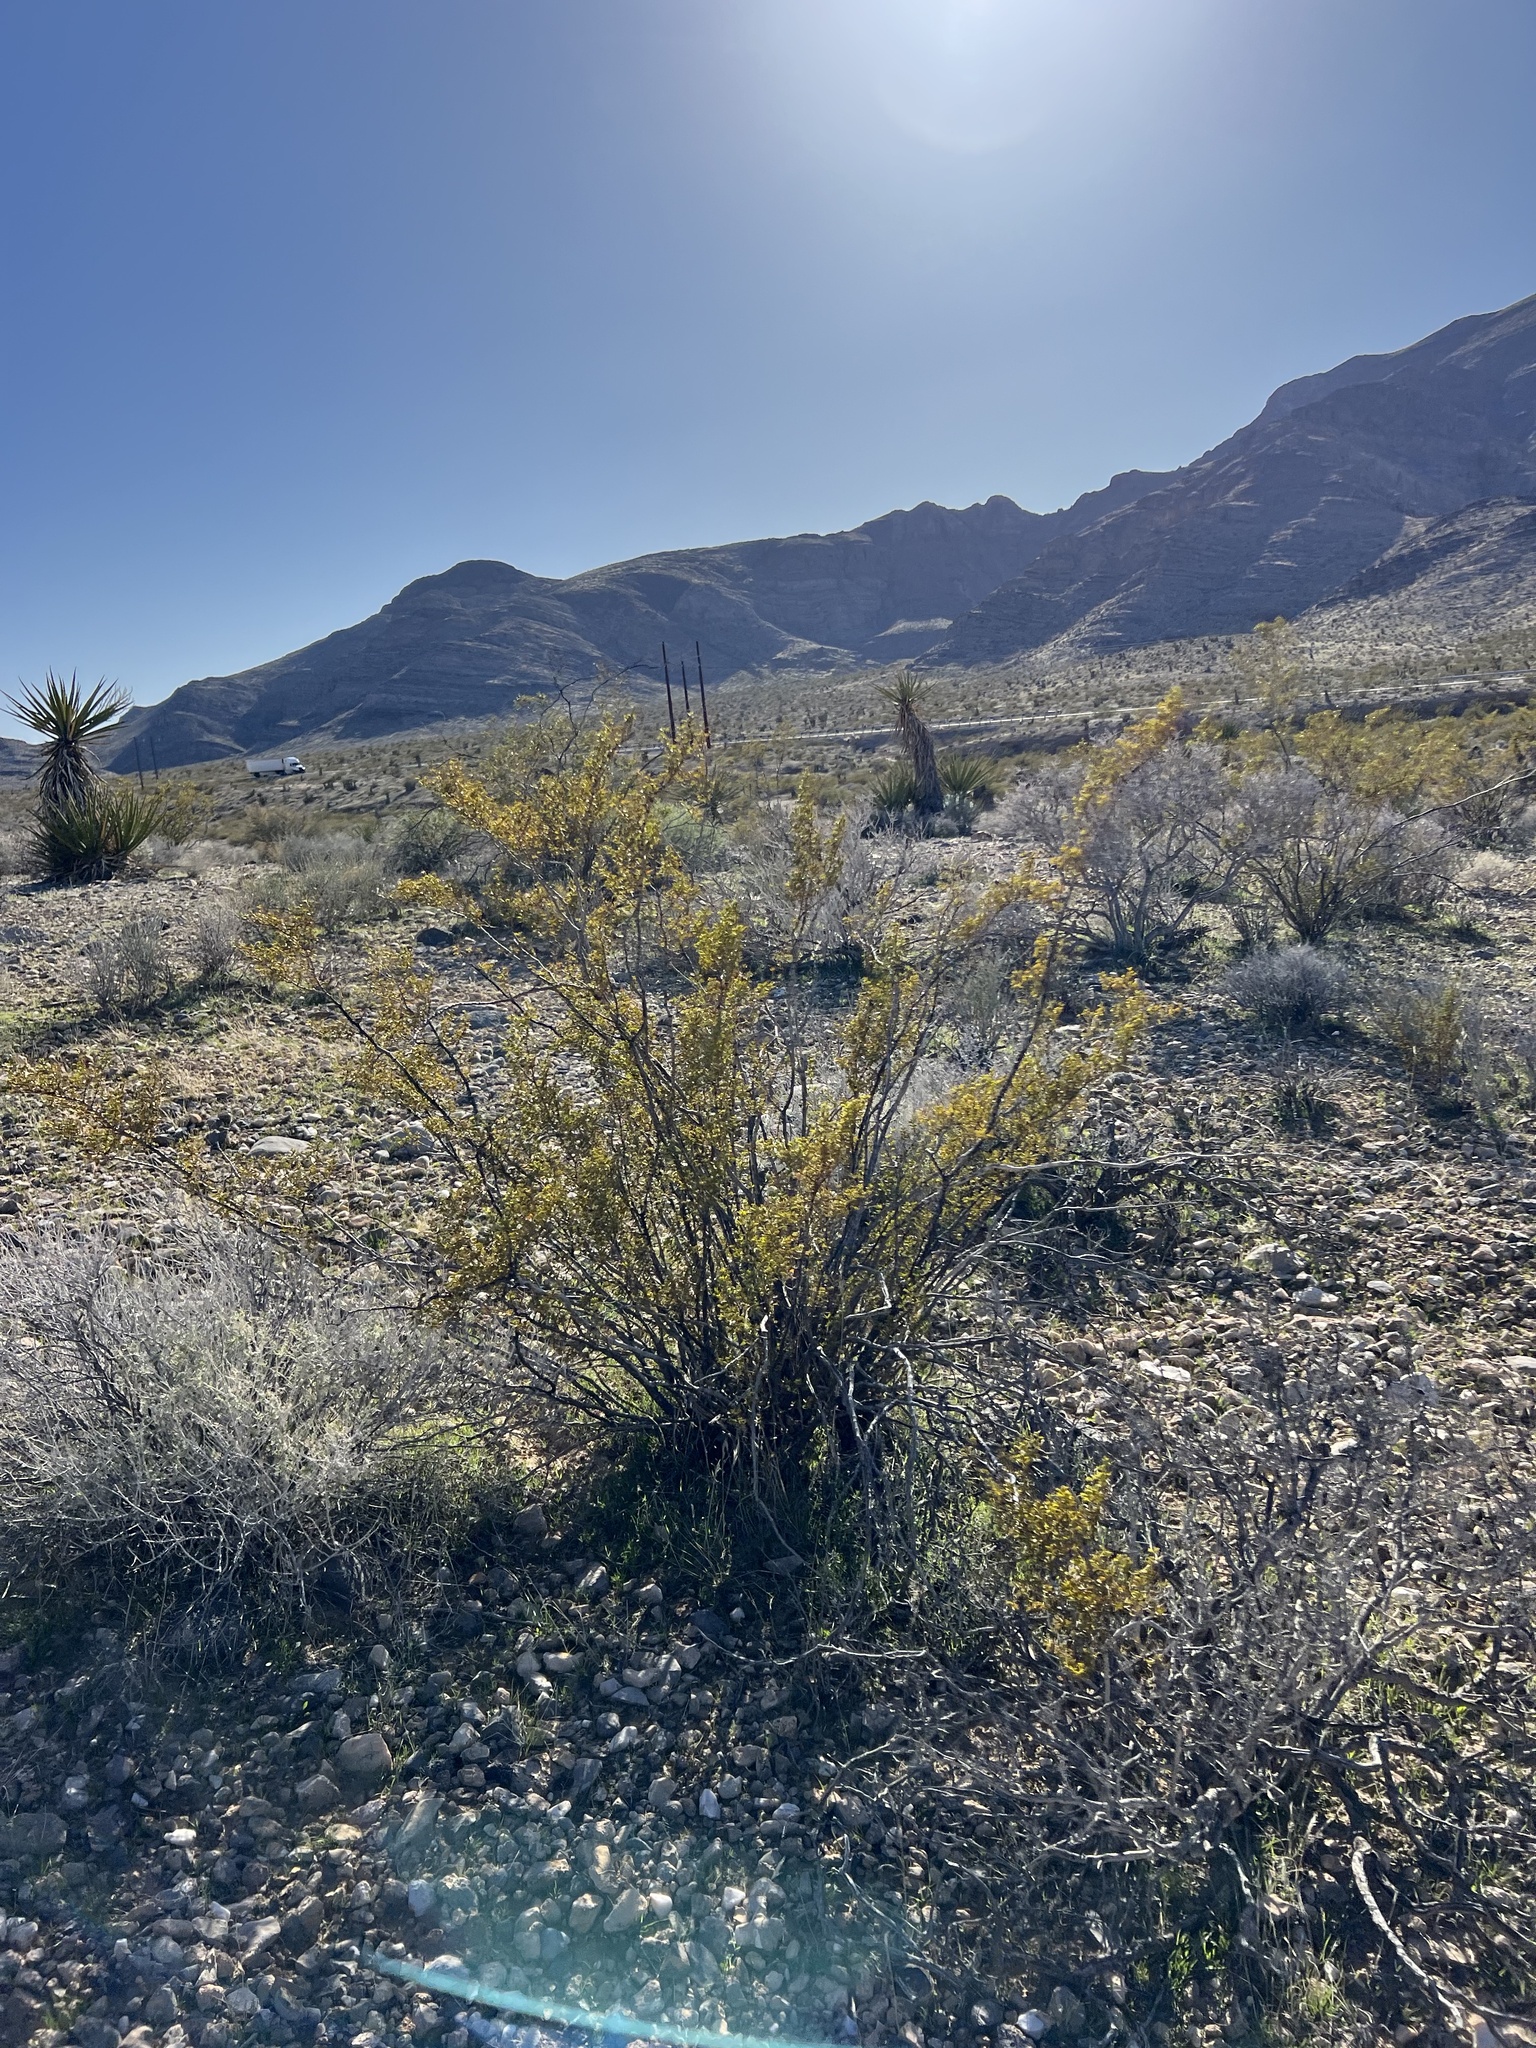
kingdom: Plantae
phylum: Tracheophyta
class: Magnoliopsida
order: Zygophyllales
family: Zygophyllaceae
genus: Larrea
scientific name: Larrea tridentata
